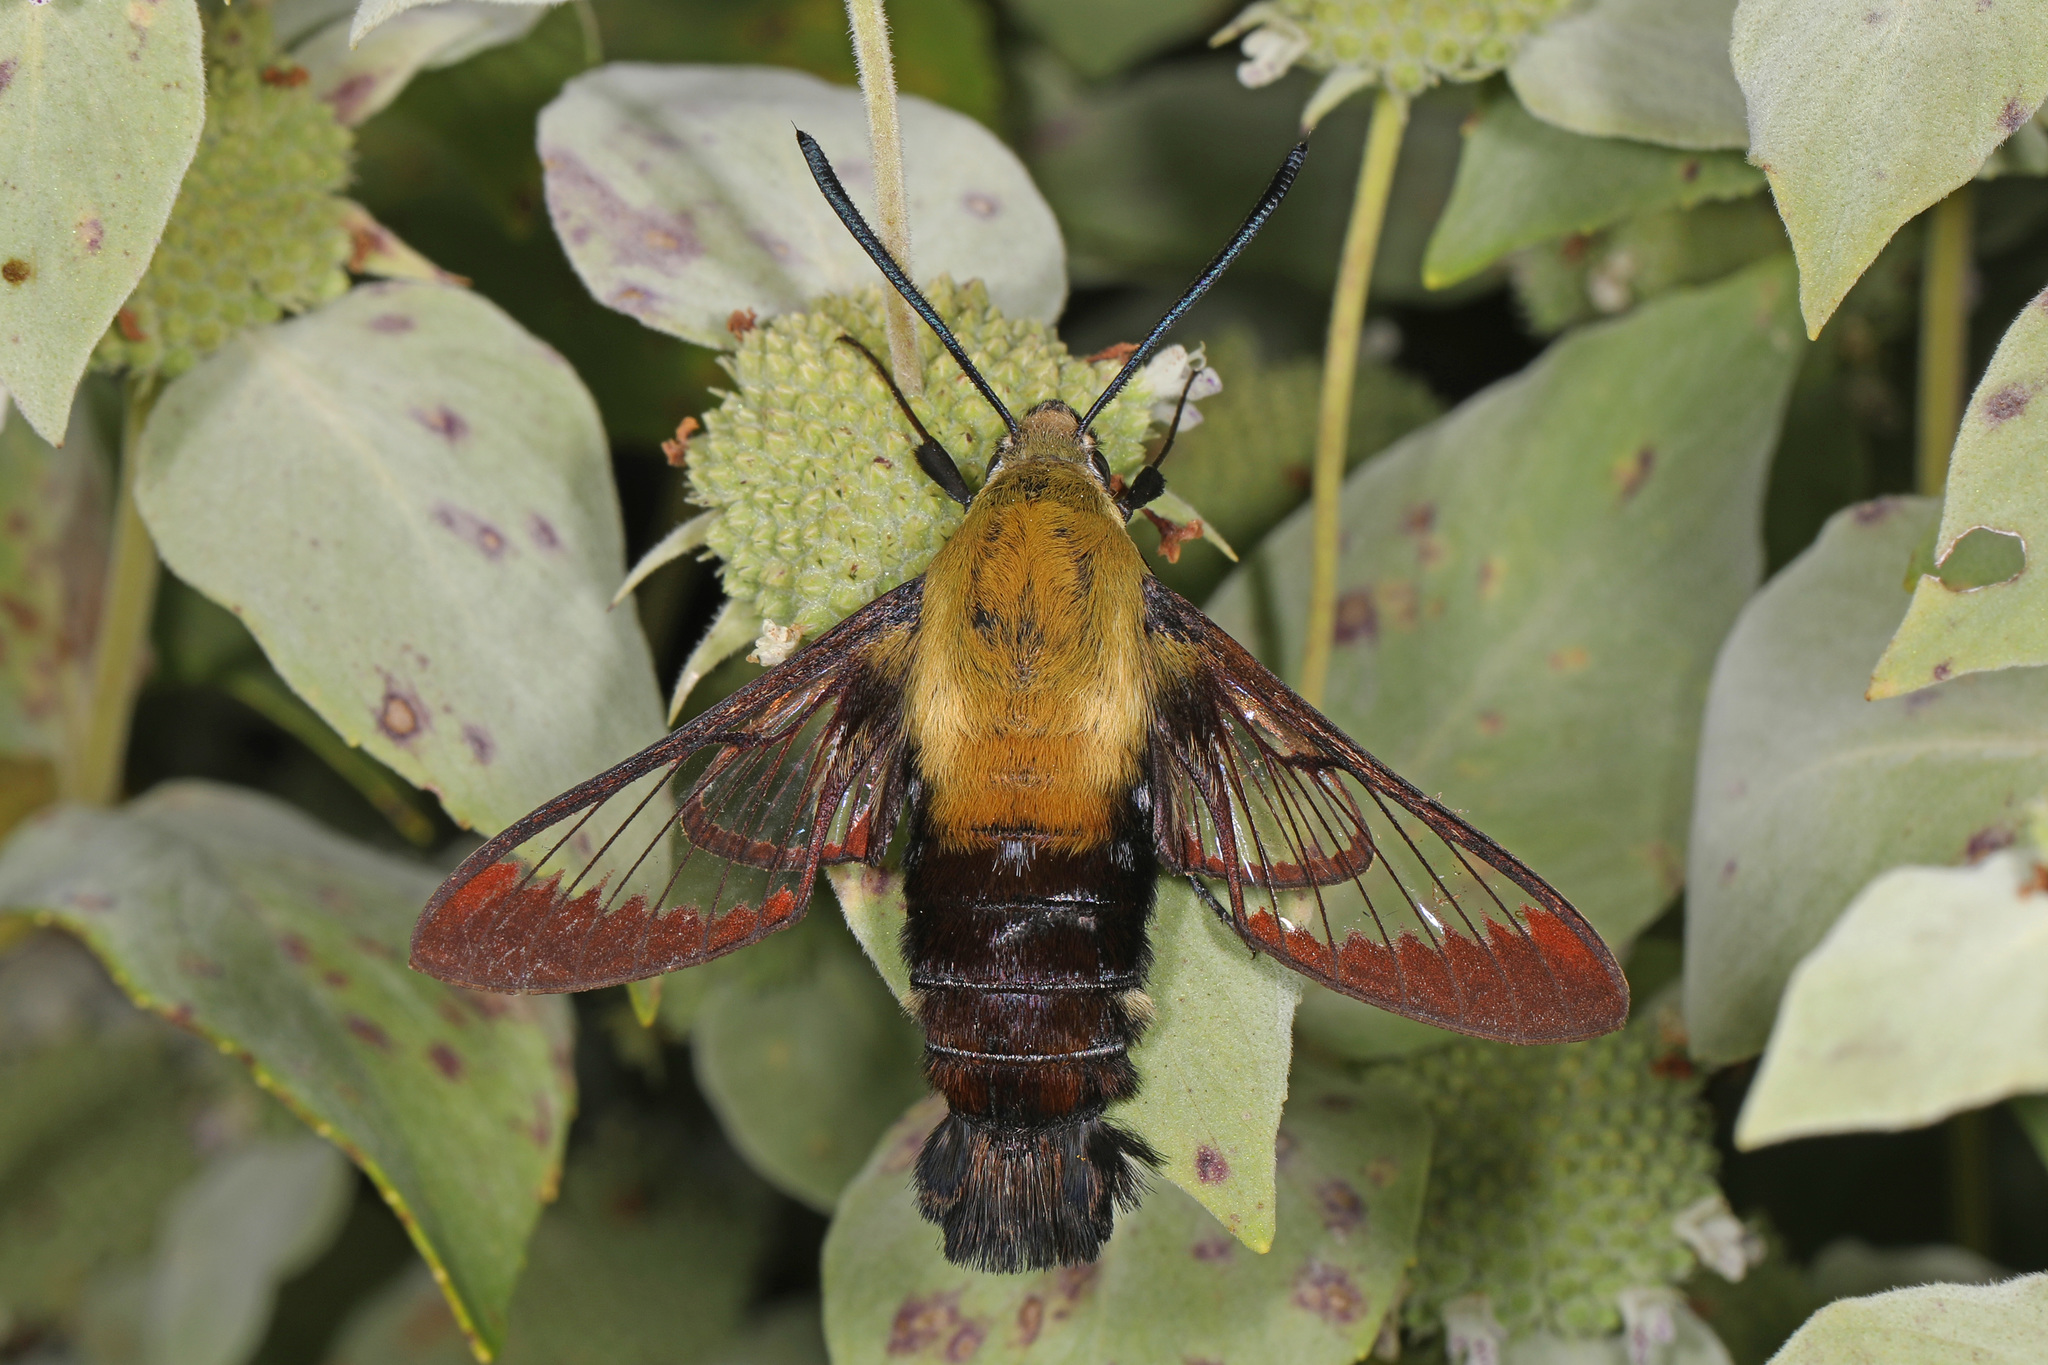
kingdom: Animalia
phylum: Arthropoda
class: Insecta
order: Lepidoptera
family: Sphingidae
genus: Hemaris
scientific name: Hemaris diffinis
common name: Bumblebee moth
